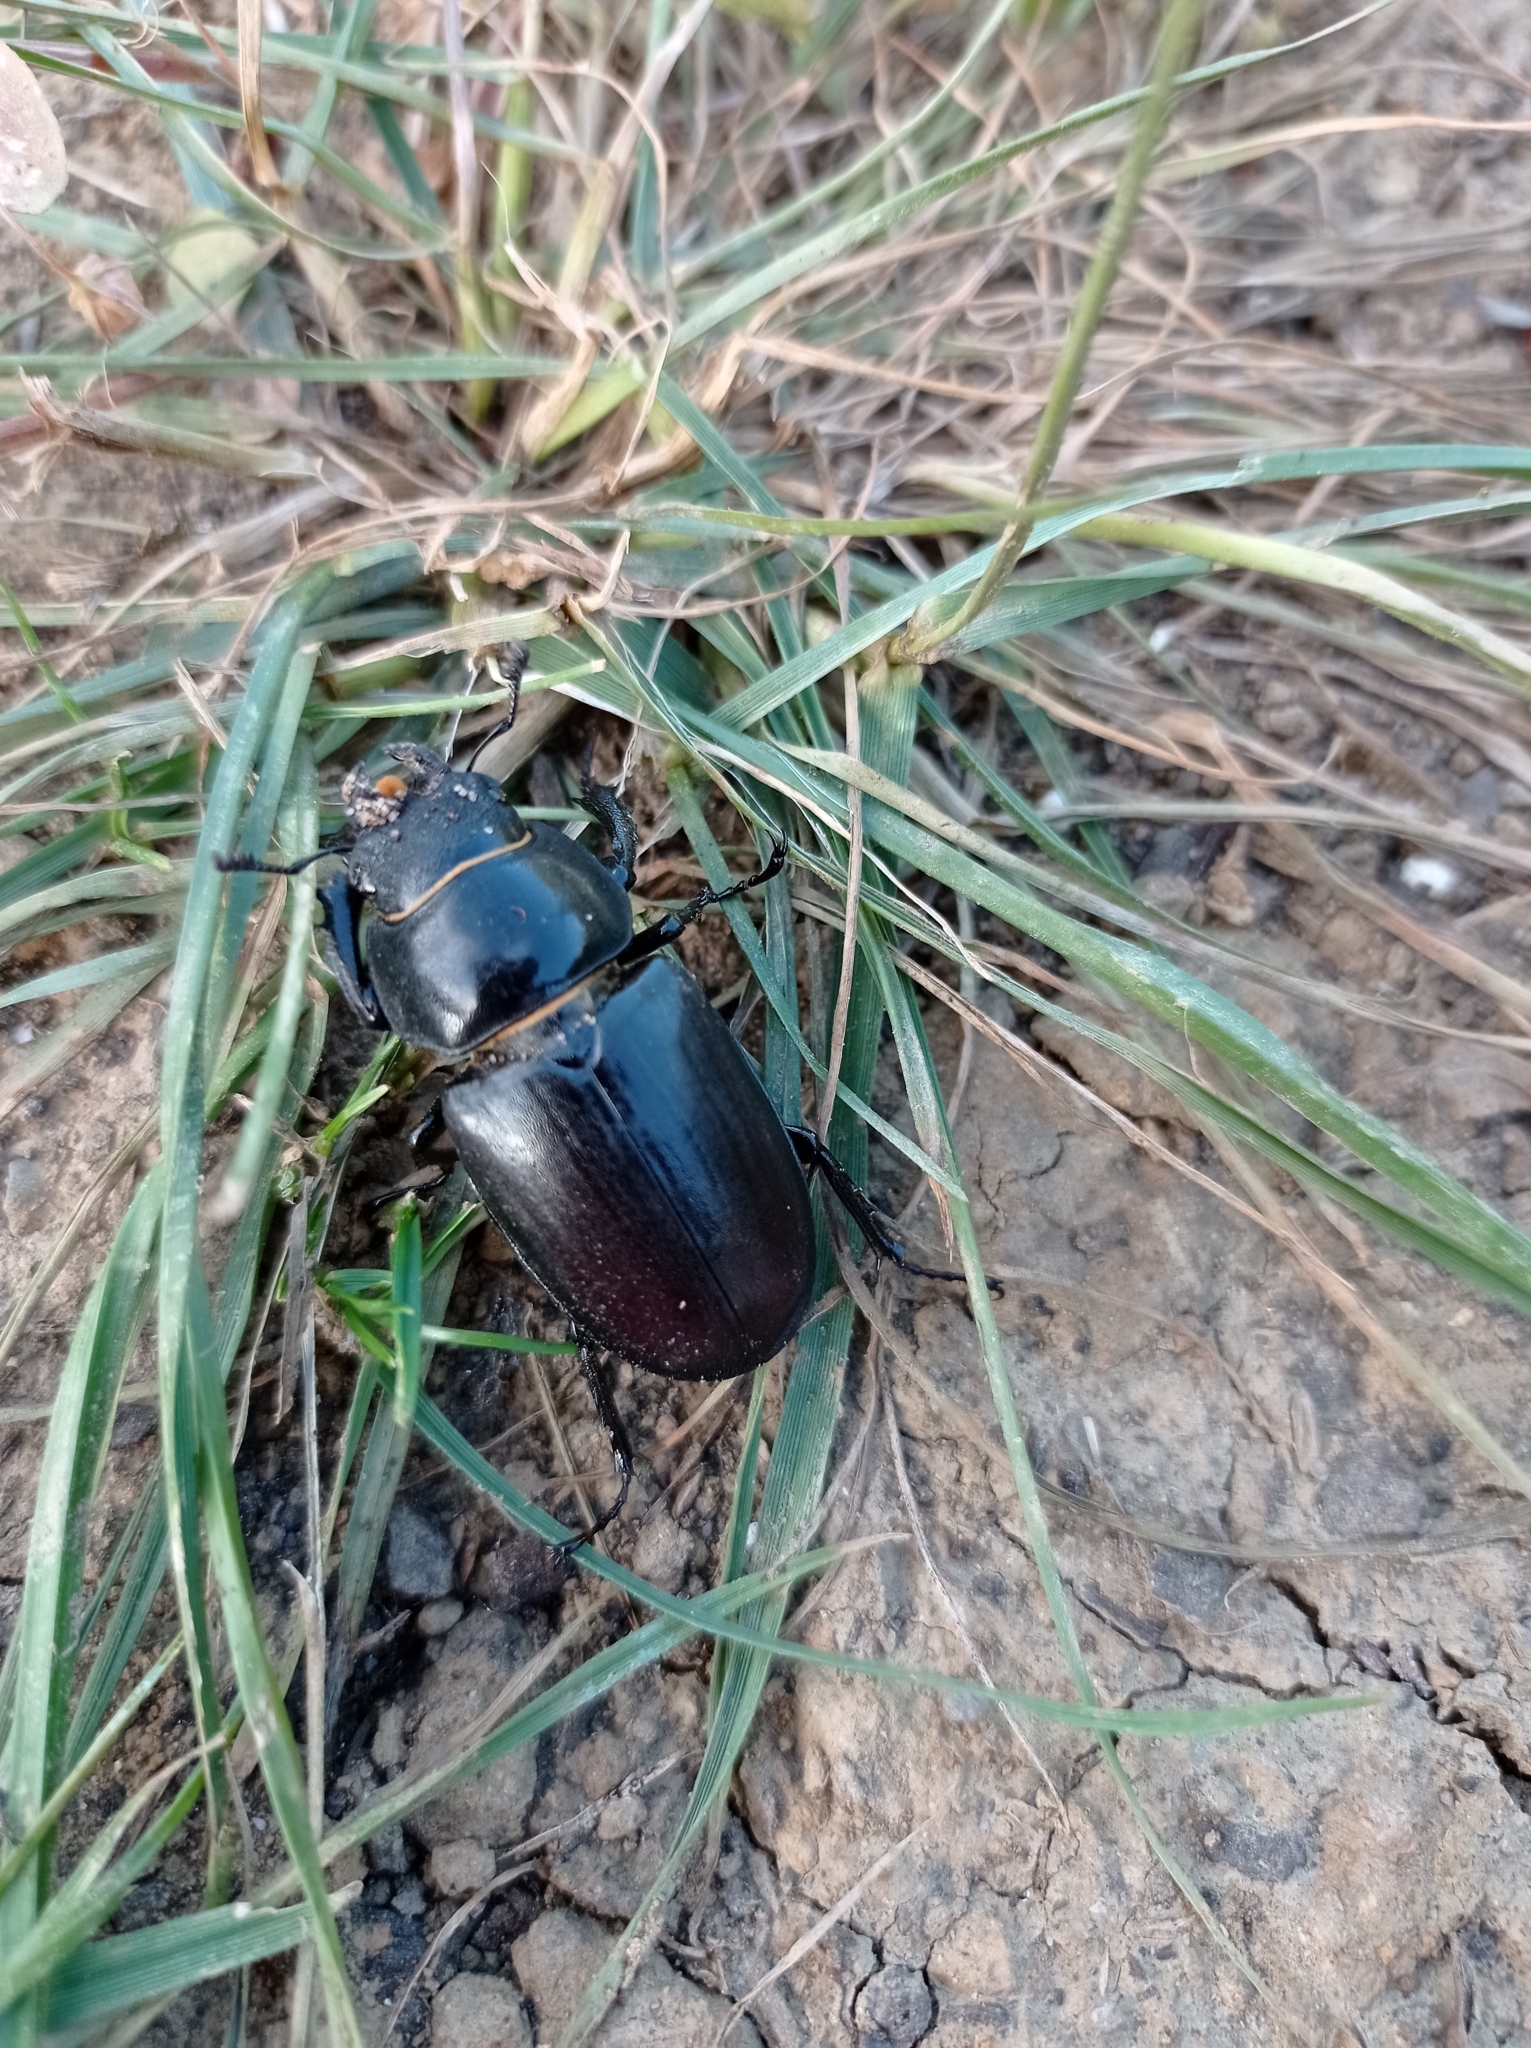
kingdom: Animalia
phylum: Arthropoda
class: Insecta
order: Coleoptera
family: Lucanidae
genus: Lucanus
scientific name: Lucanus cervus
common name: Stag beetle
